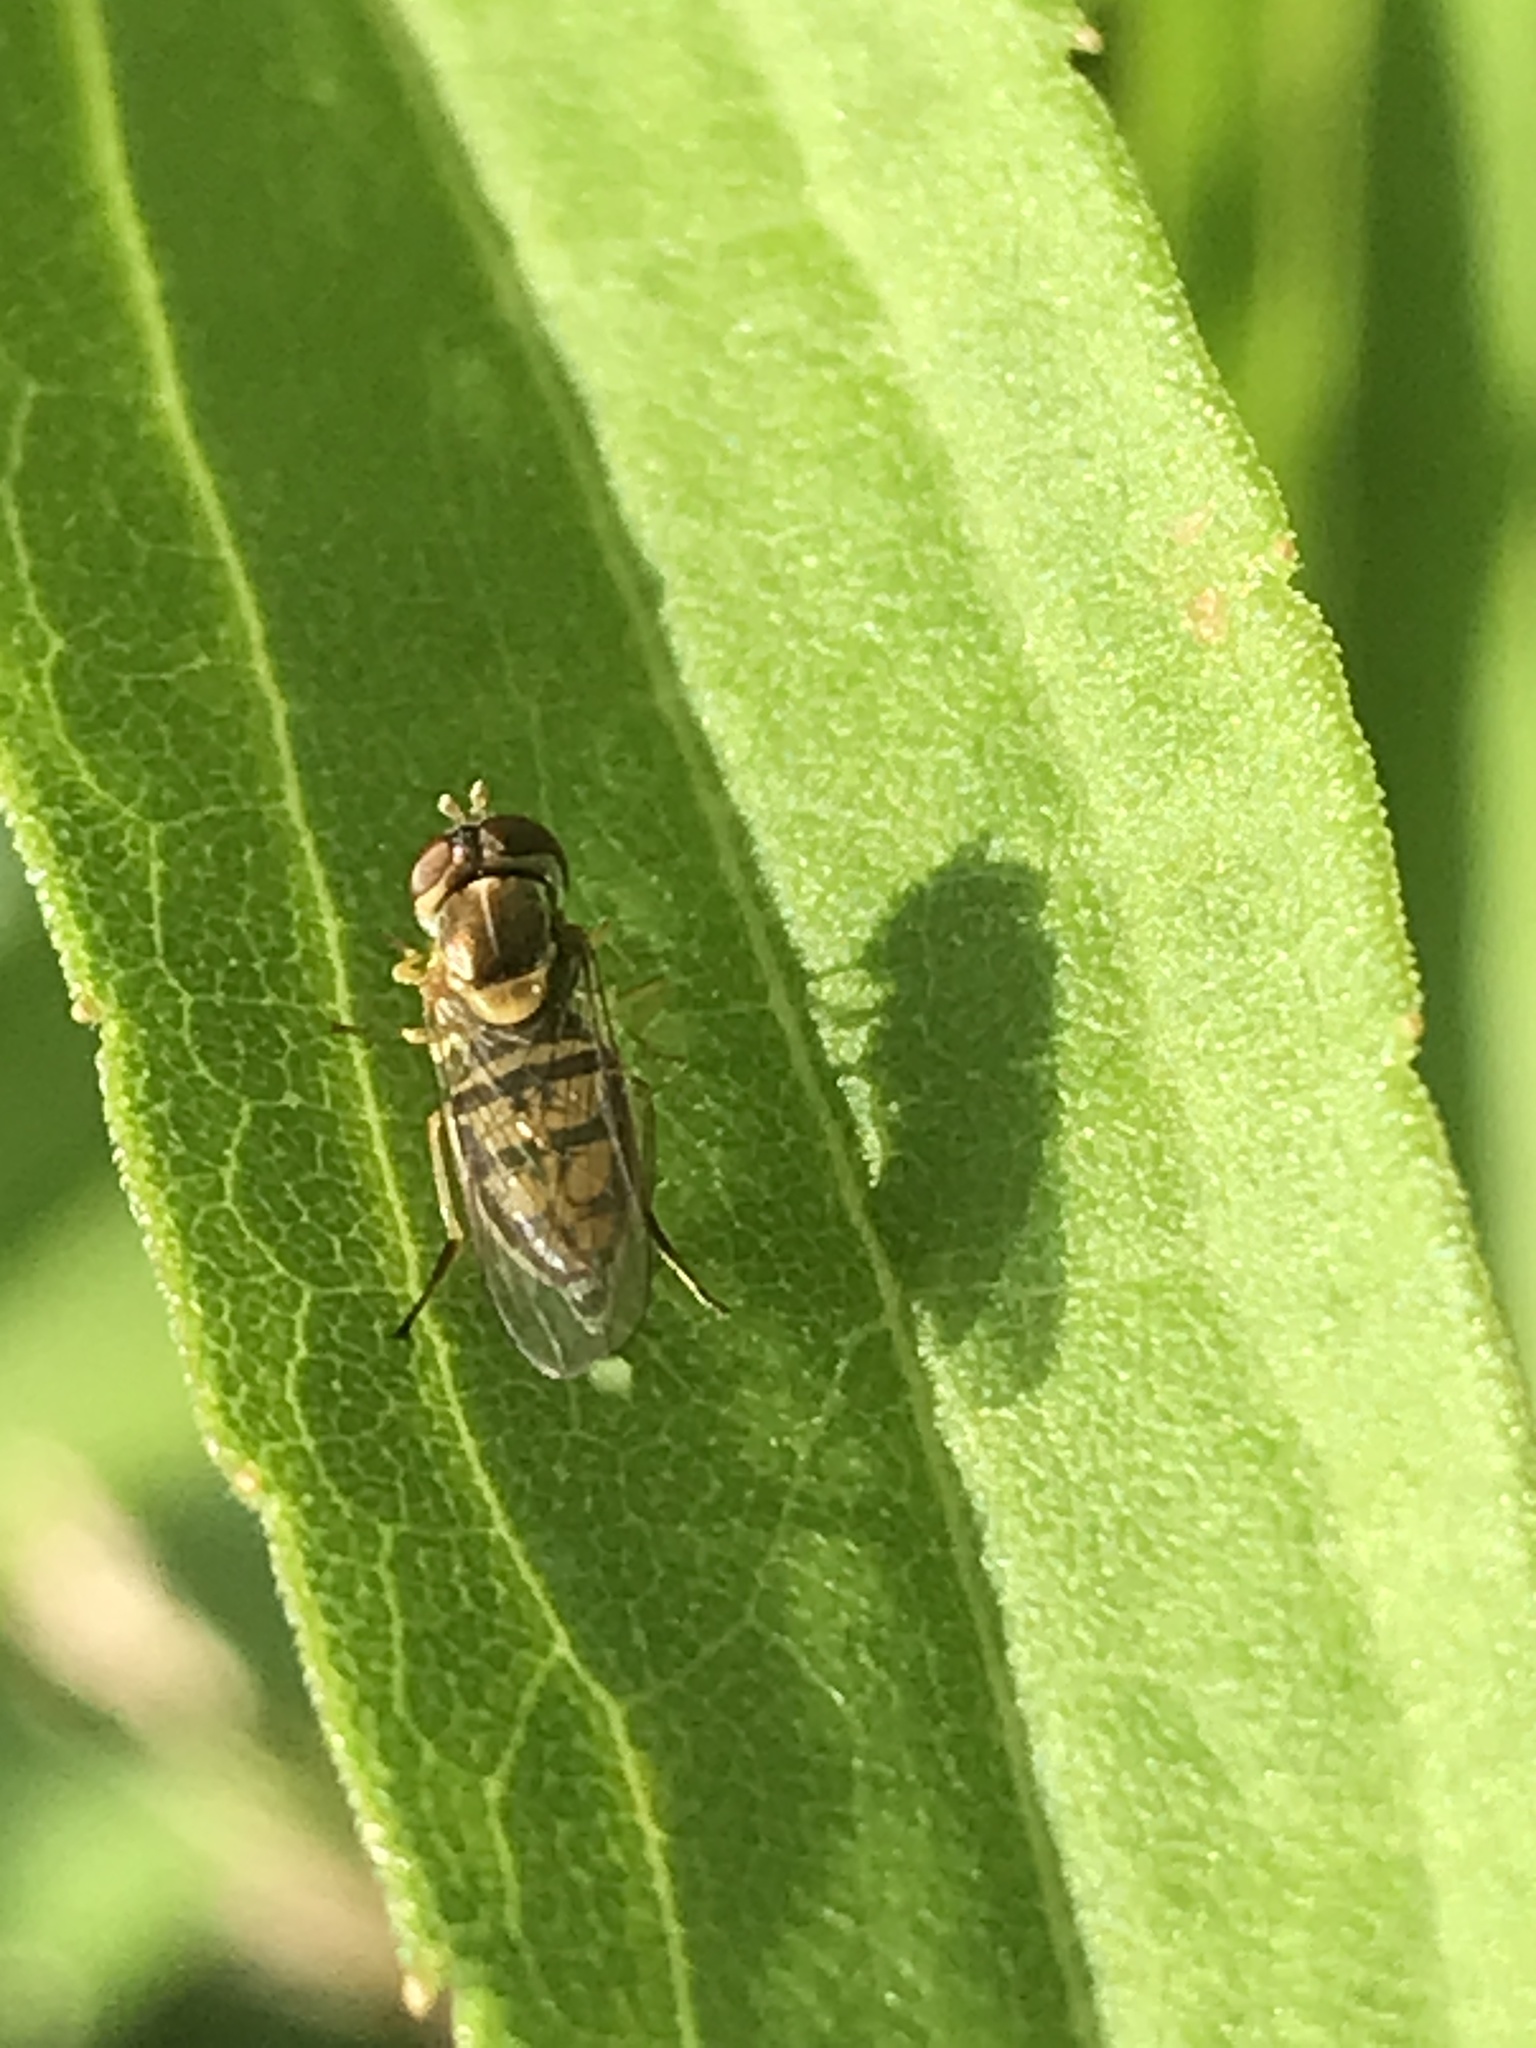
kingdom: Animalia
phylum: Arthropoda
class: Insecta
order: Diptera
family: Syrphidae
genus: Toxomerus
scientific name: Toxomerus marginatus
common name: Syrphid fly
